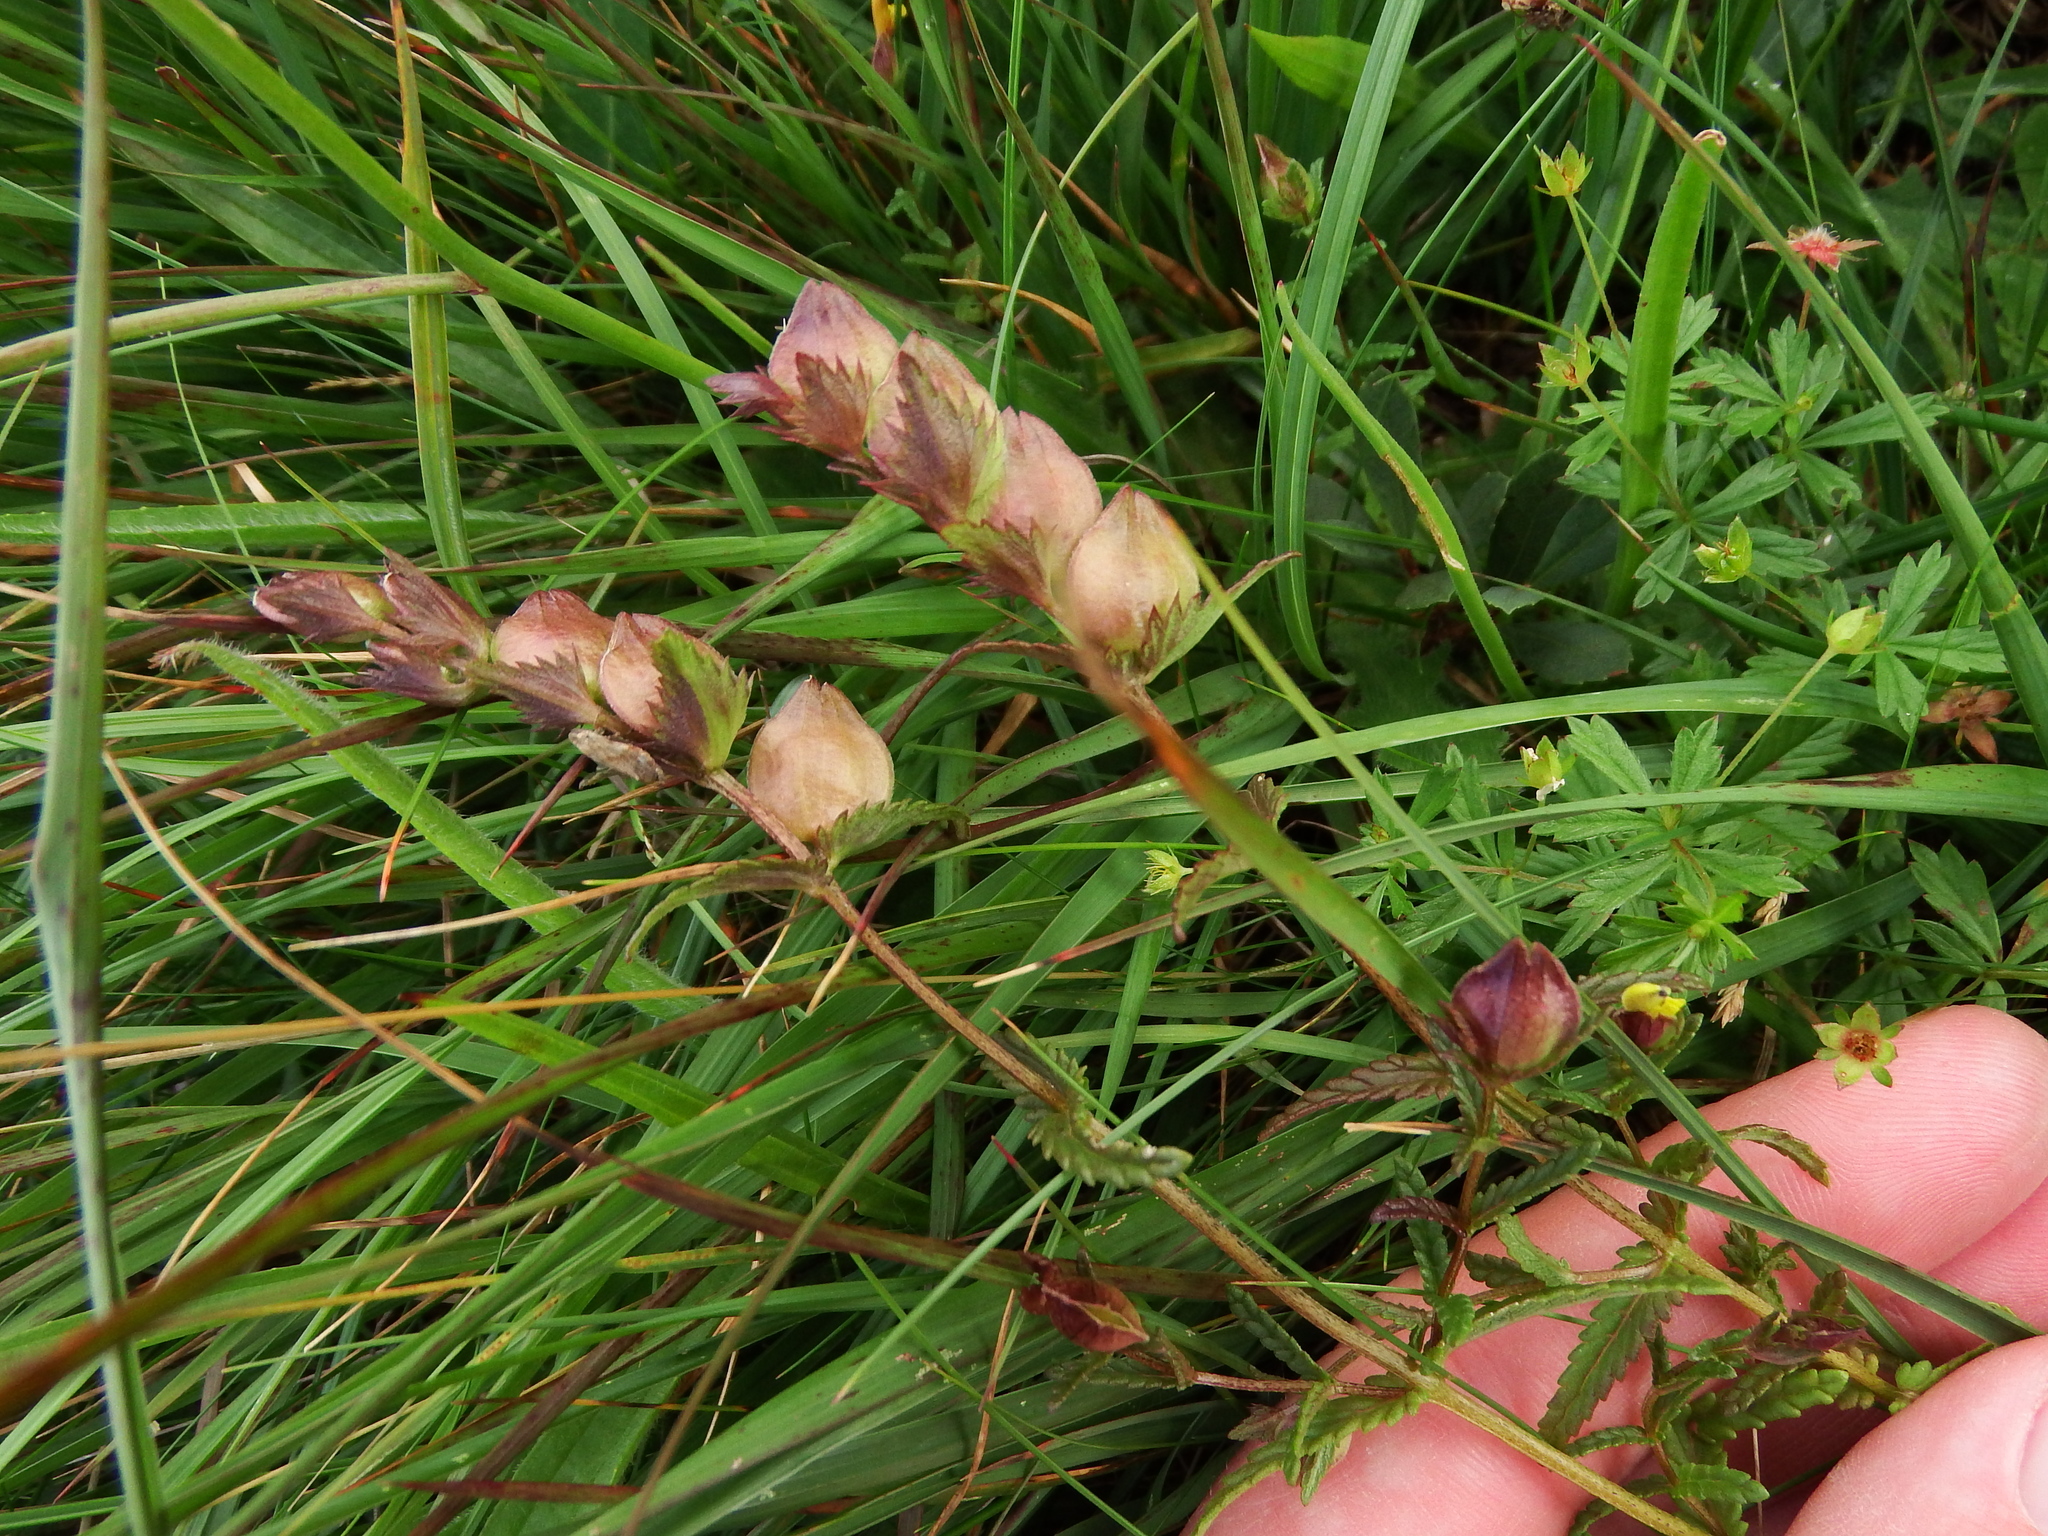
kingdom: Plantae
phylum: Tracheophyta
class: Magnoliopsida
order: Lamiales
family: Orobanchaceae
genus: Rhinanthus
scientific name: Rhinanthus minor
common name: Yellow-rattle
